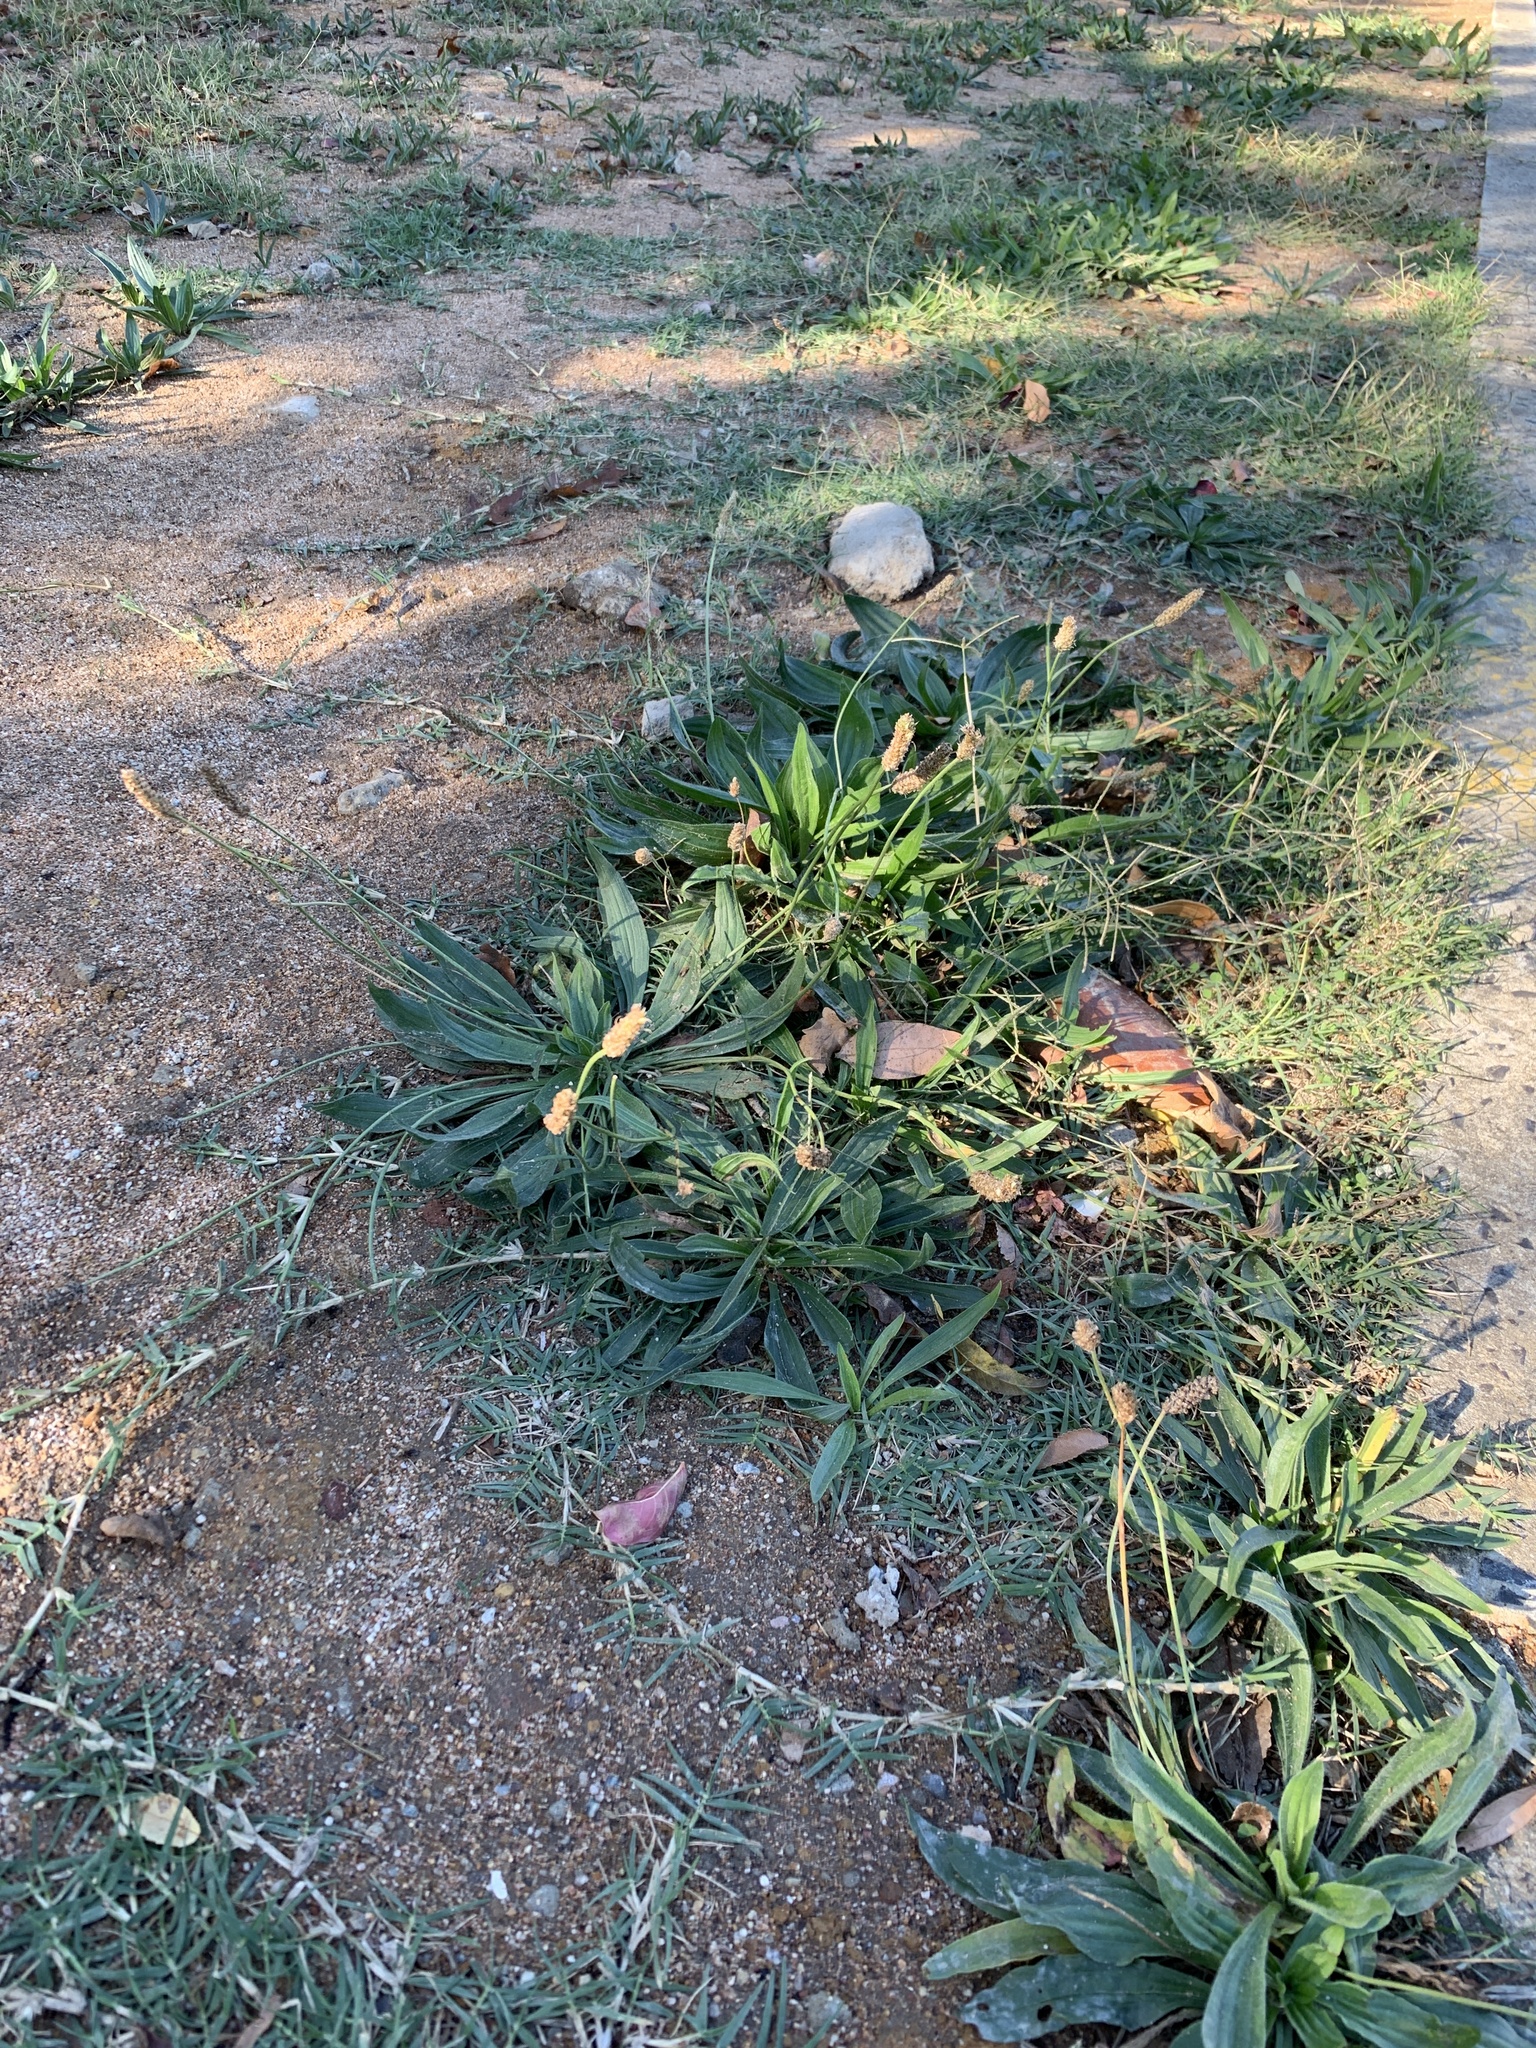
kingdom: Plantae
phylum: Tracheophyta
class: Magnoliopsida
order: Lamiales
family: Plantaginaceae
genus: Plantago
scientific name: Plantago lanceolata
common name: Ribwort plantain
